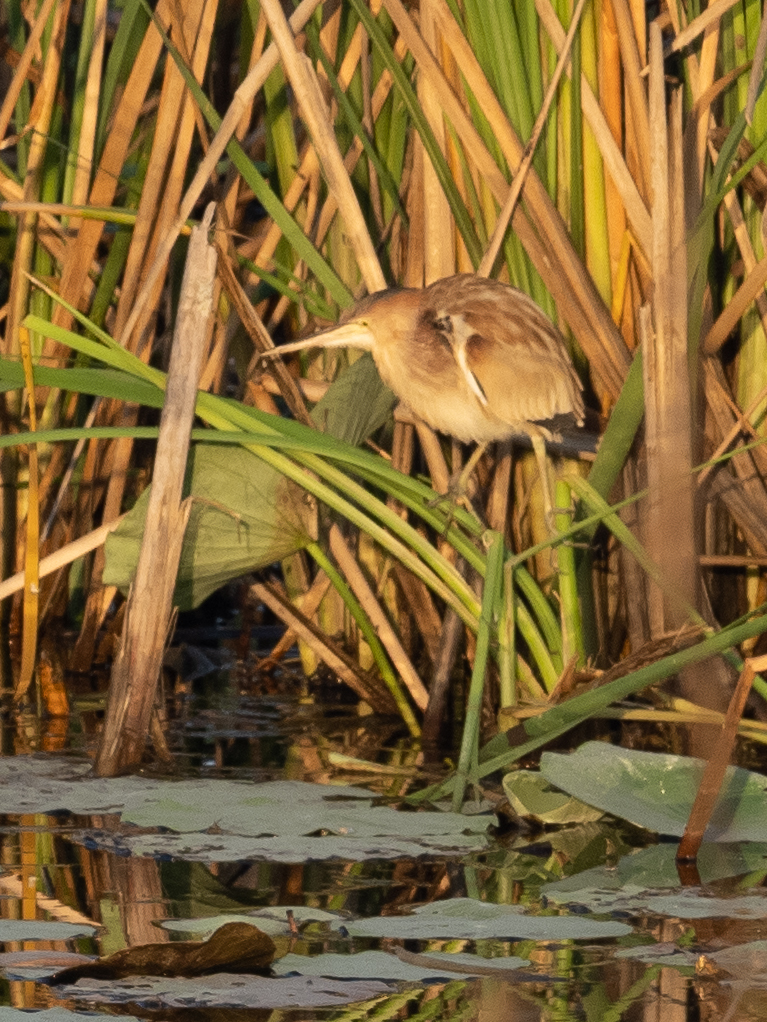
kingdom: Animalia
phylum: Chordata
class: Aves
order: Pelecaniformes
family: Ardeidae
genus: Ixobrychus
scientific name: Ixobrychus sinensis
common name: Yellow bittern
